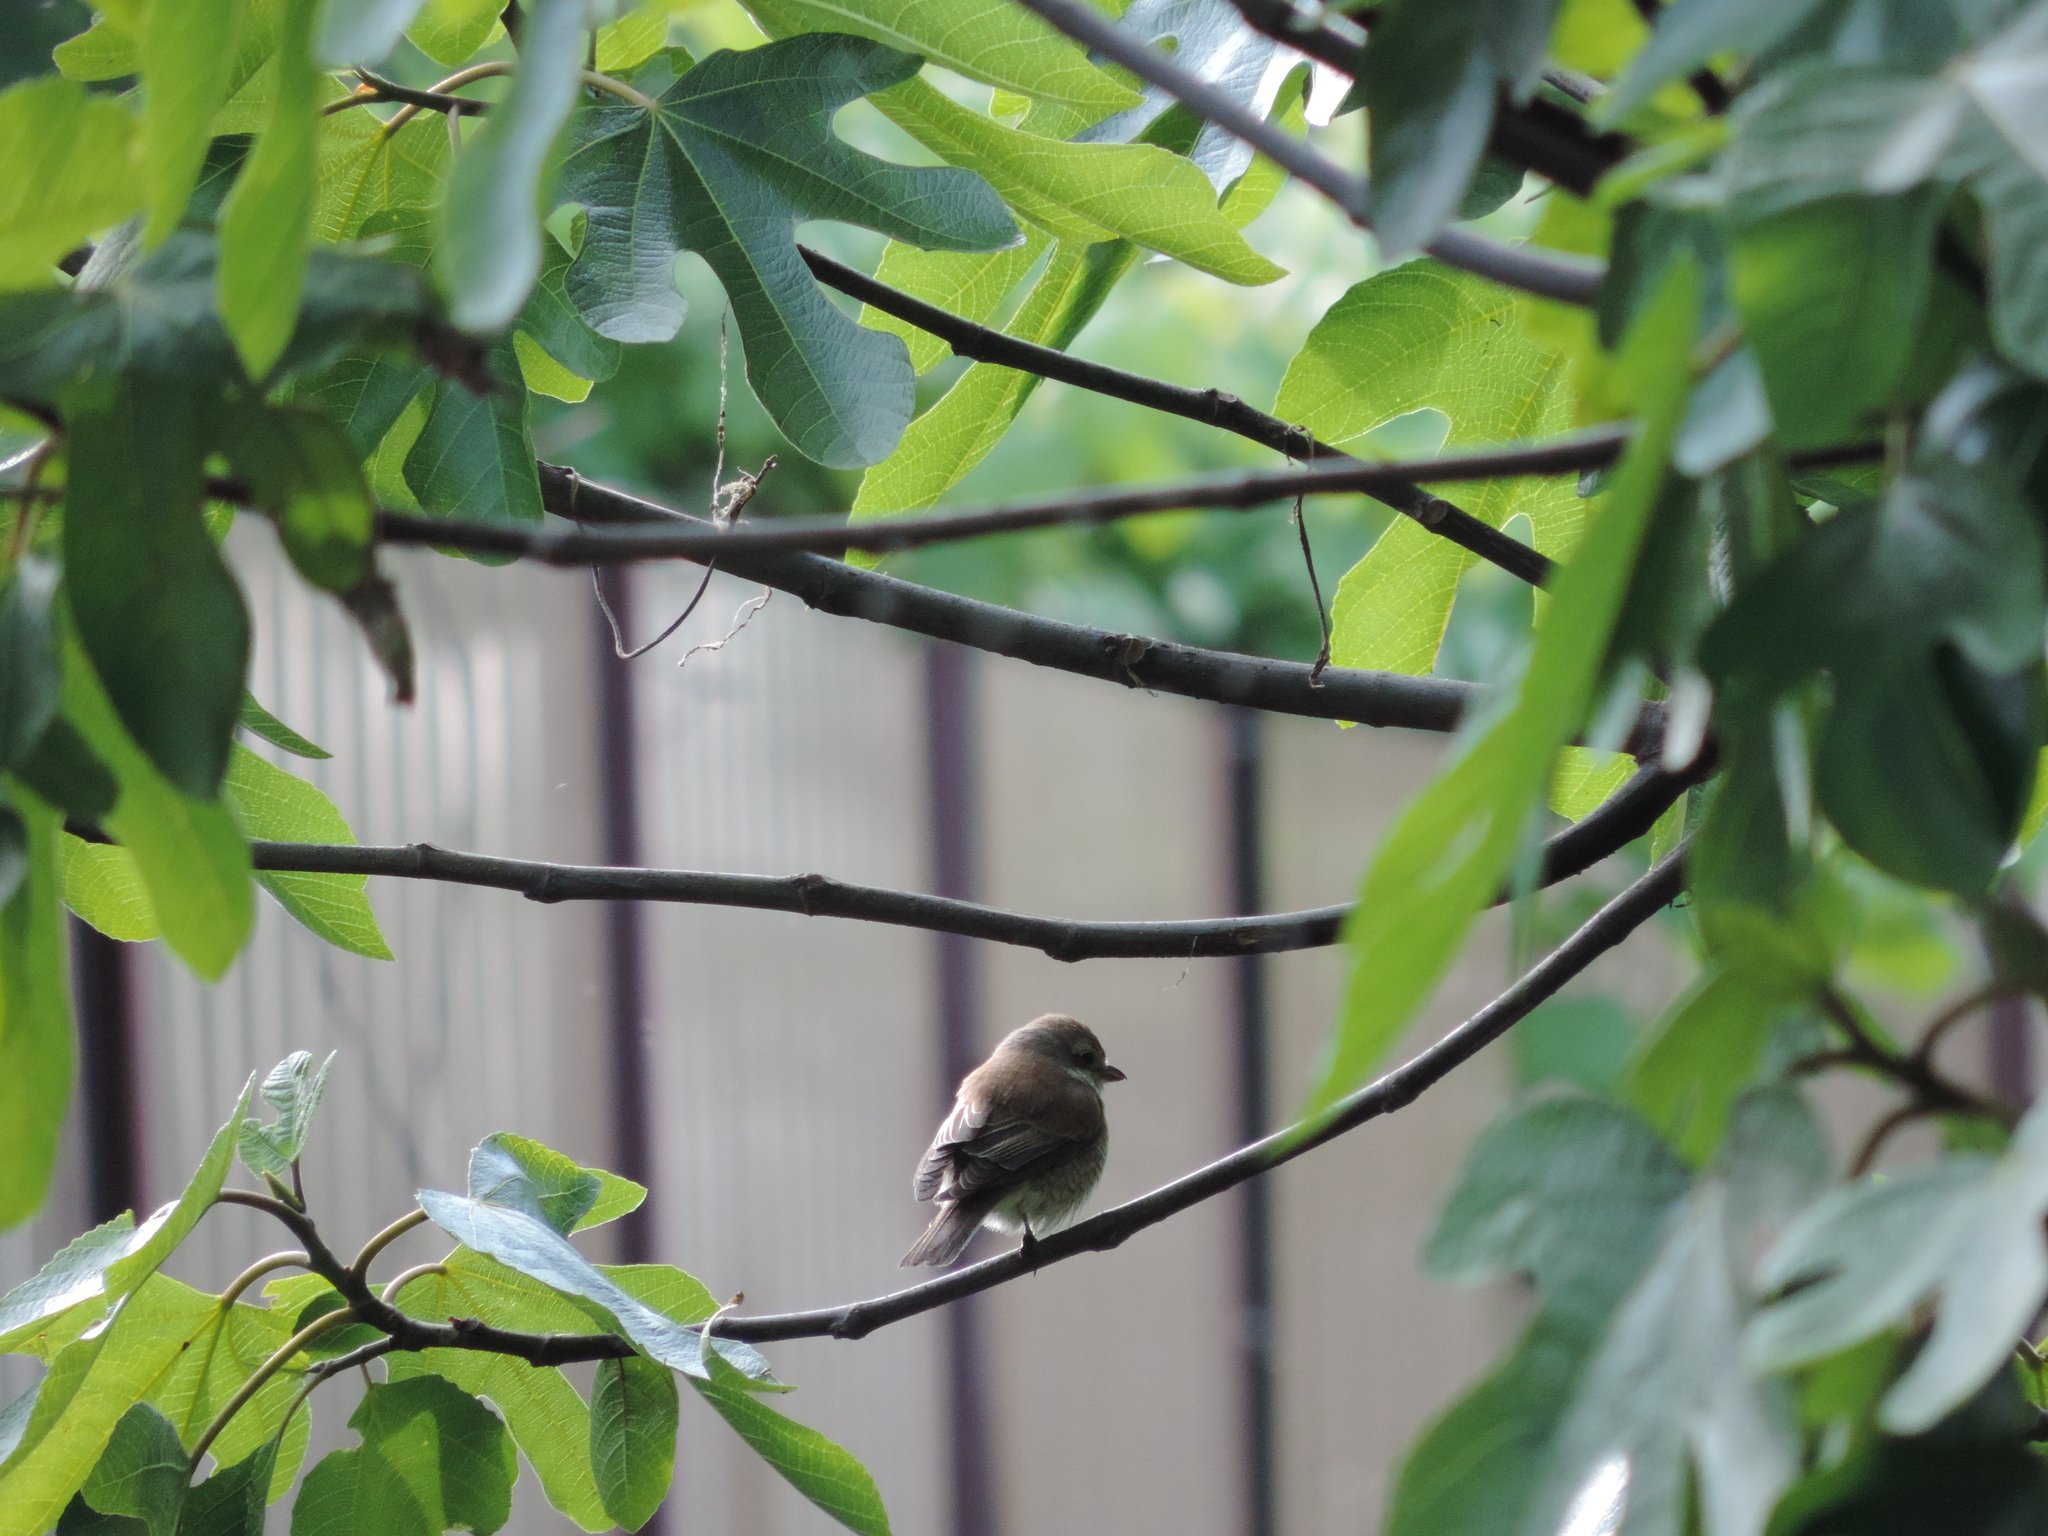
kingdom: Animalia
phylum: Chordata
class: Aves
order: Passeriformes
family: Laniidae
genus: Lanius
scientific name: Lanius collurio
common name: Red-backed shrike
